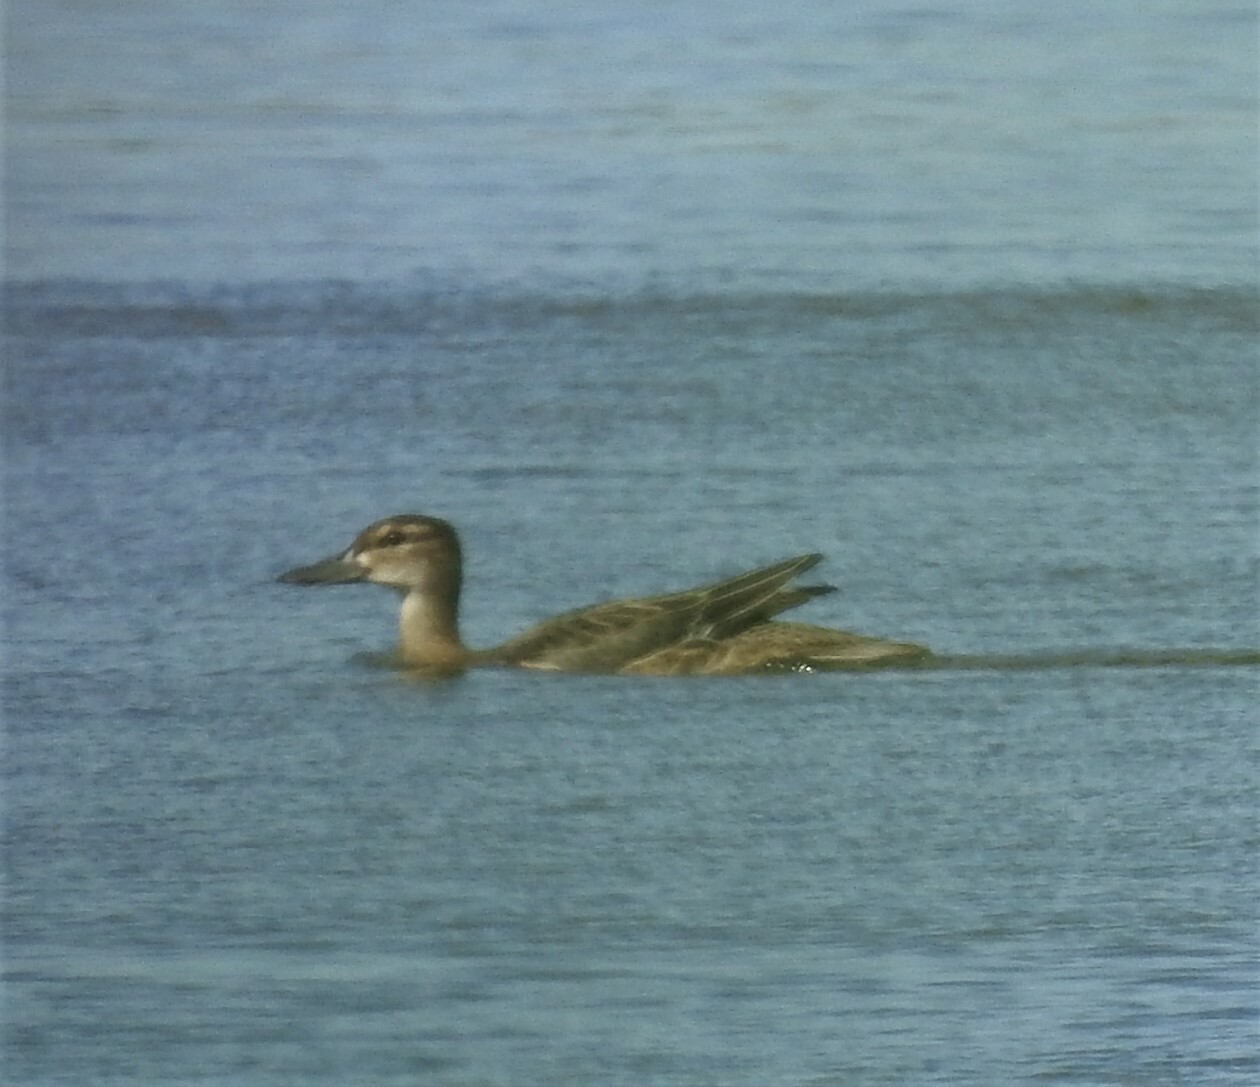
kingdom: Animalia
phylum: Chordata
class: Aves
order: Anseriformes
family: Anatidae
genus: Spatula
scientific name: Spatula querquedula
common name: Garganey
